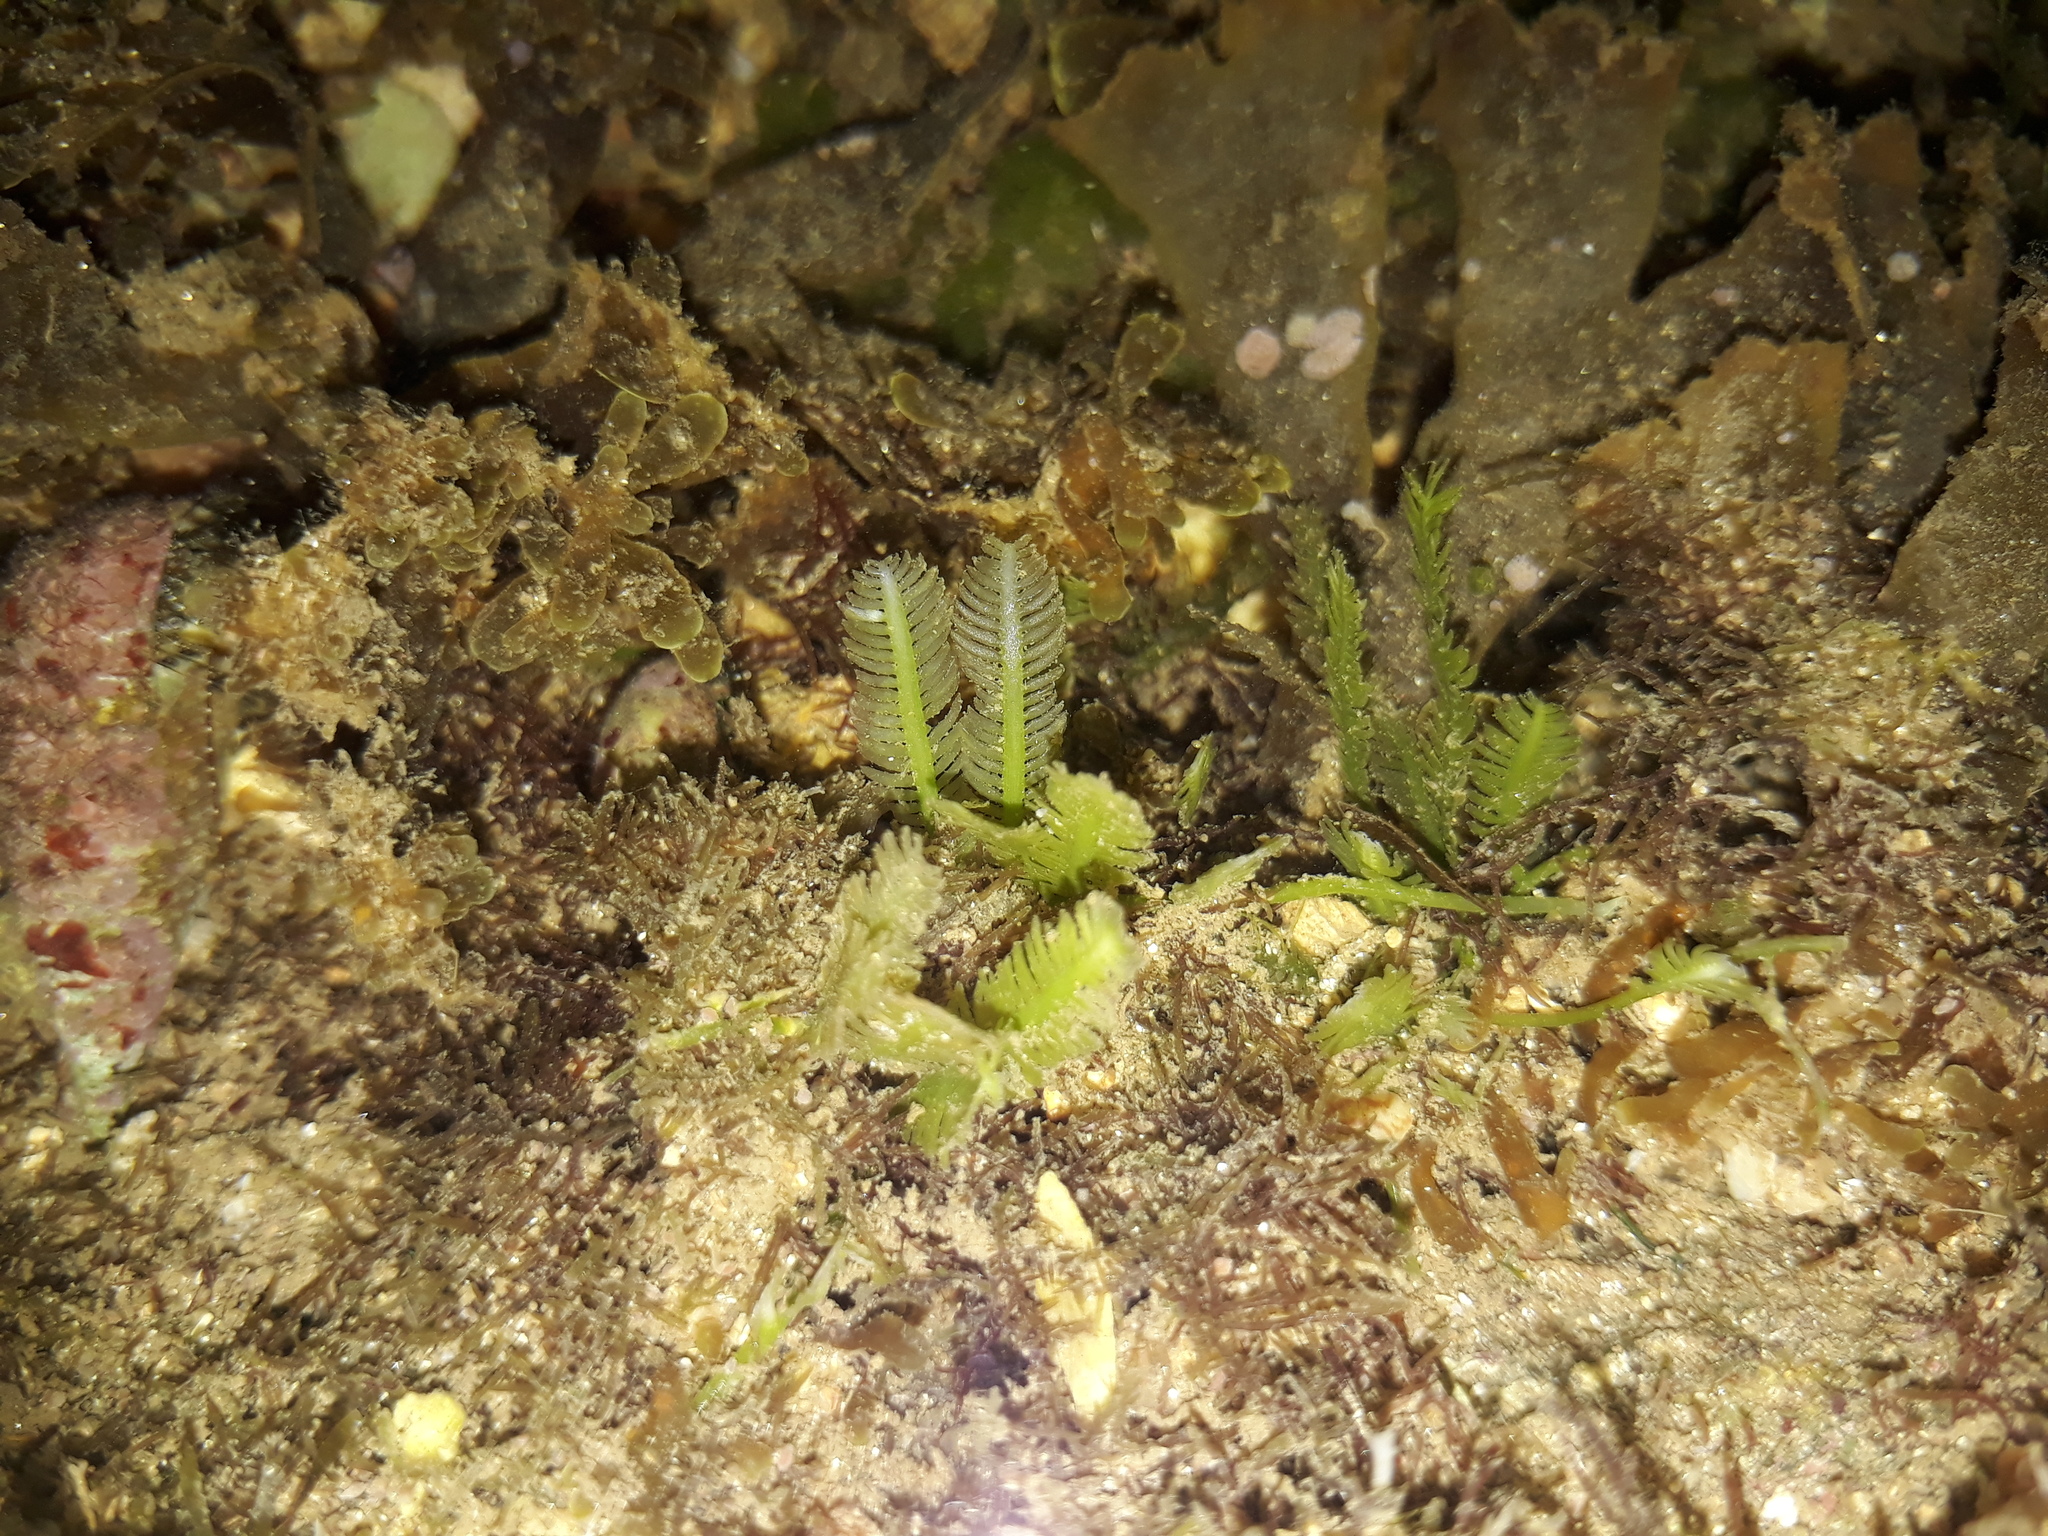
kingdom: Plantae
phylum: Chlorophyta
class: Ulvophyceae
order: Bryopsidales
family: Caulerpaceae
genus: Caulerpa
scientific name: Caulerpa taxifolia
